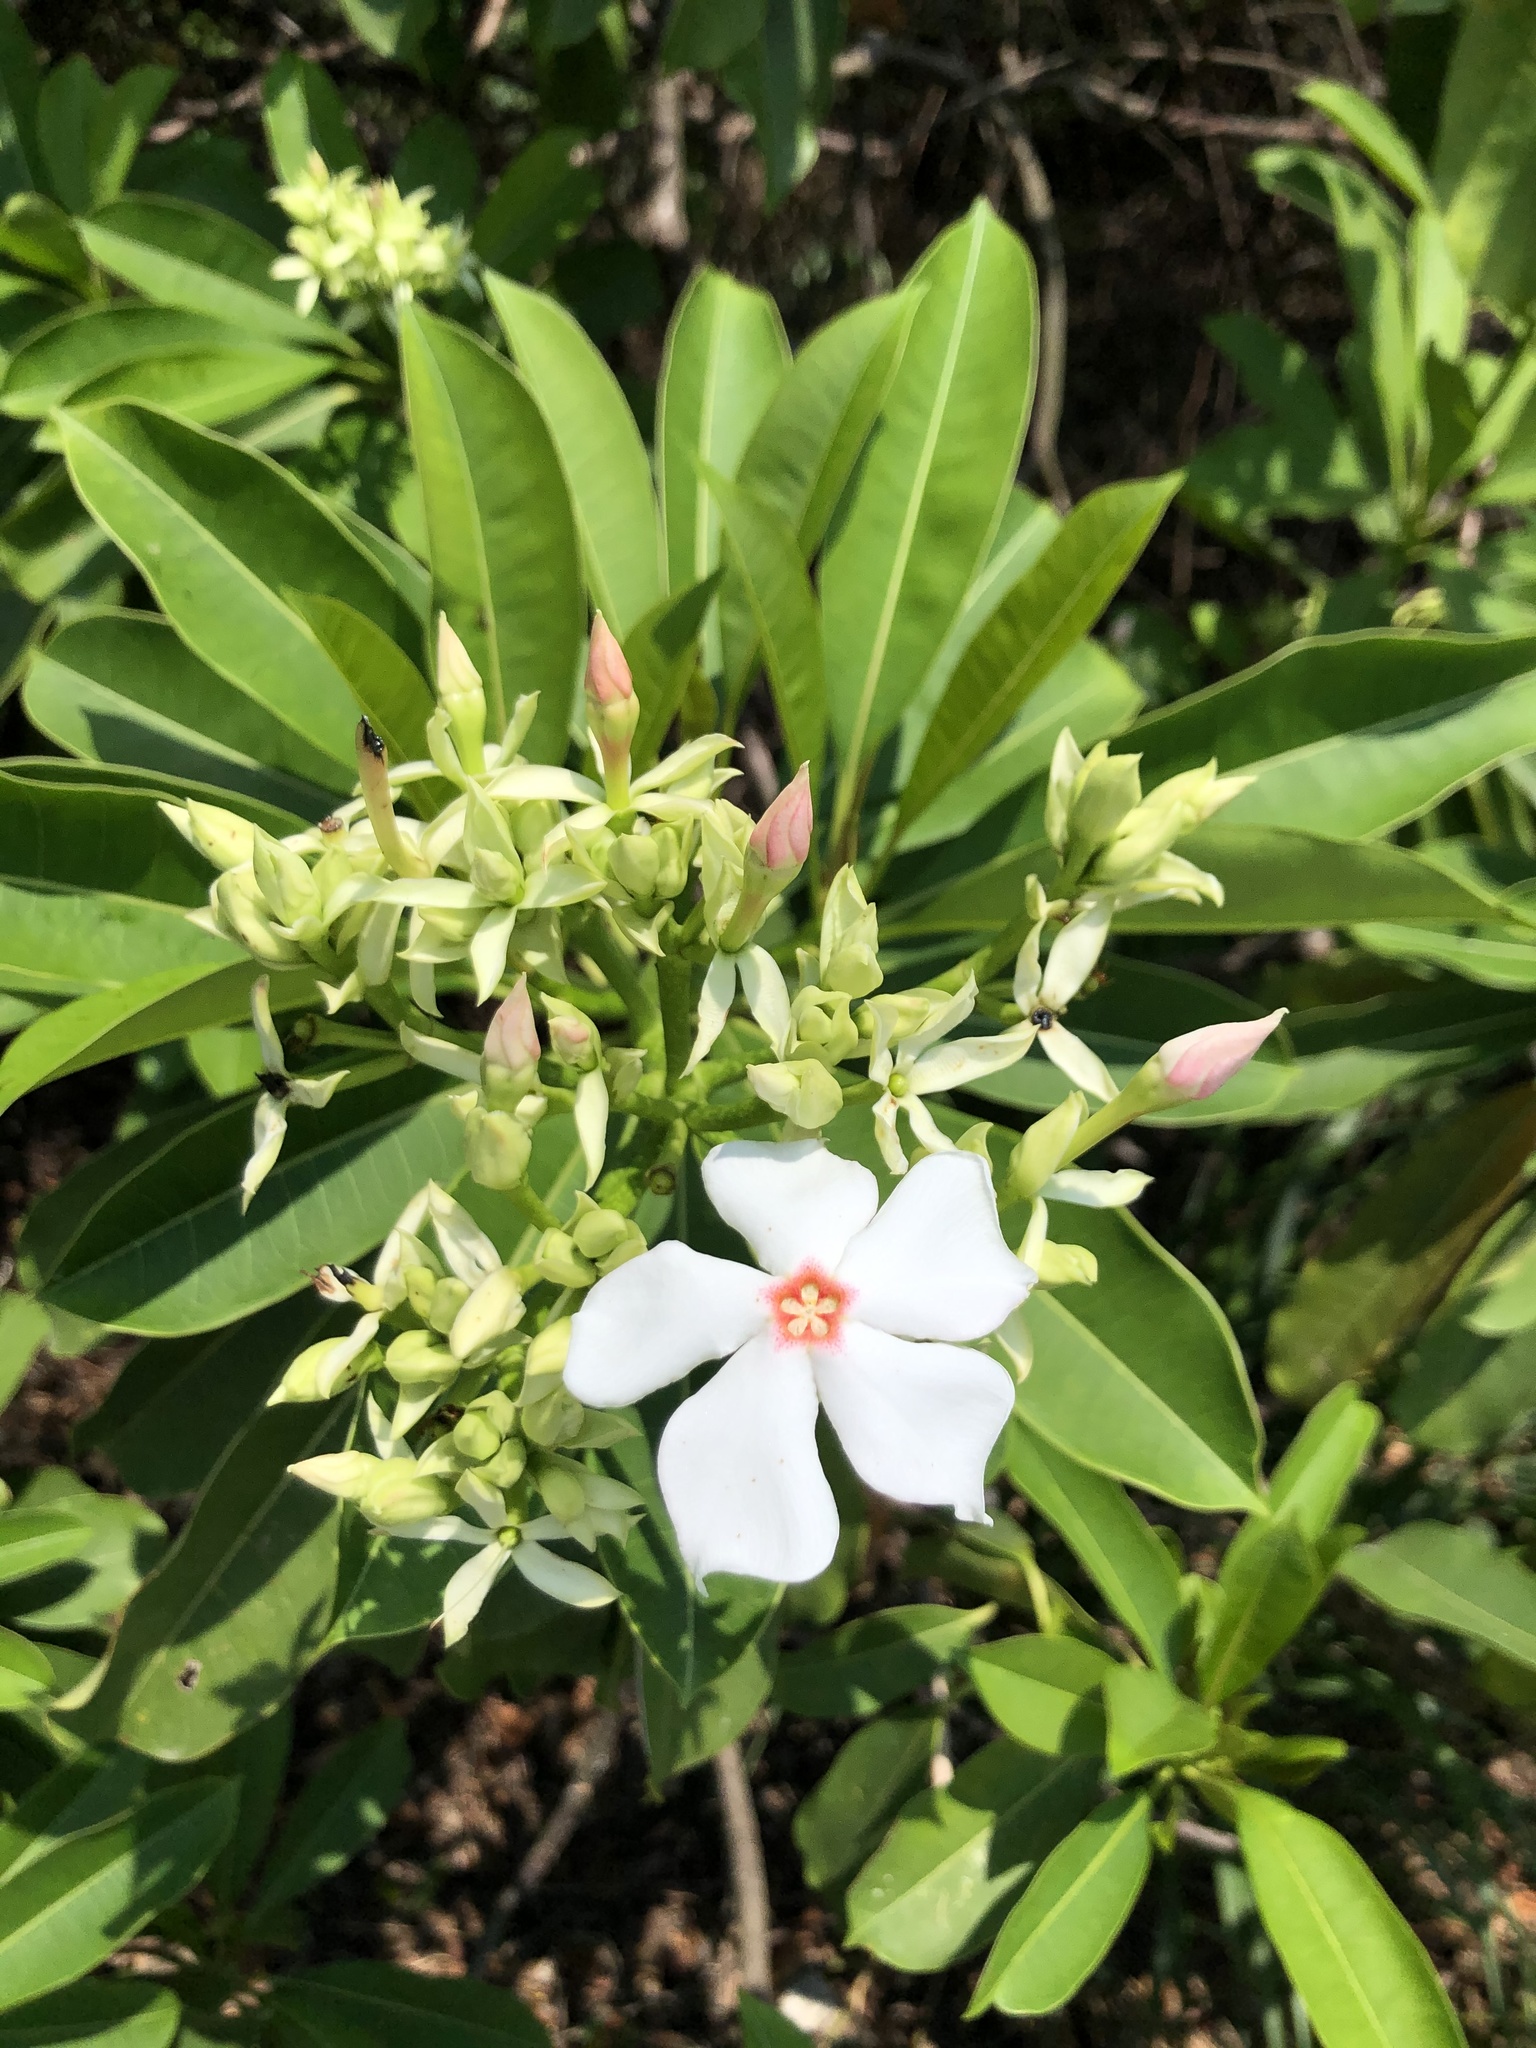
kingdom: Plantae
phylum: Tracheophyta
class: Magnoliopsida
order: Gentianales
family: Apocynaceae
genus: Cerbera
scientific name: Cerbera manghas
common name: Reva
